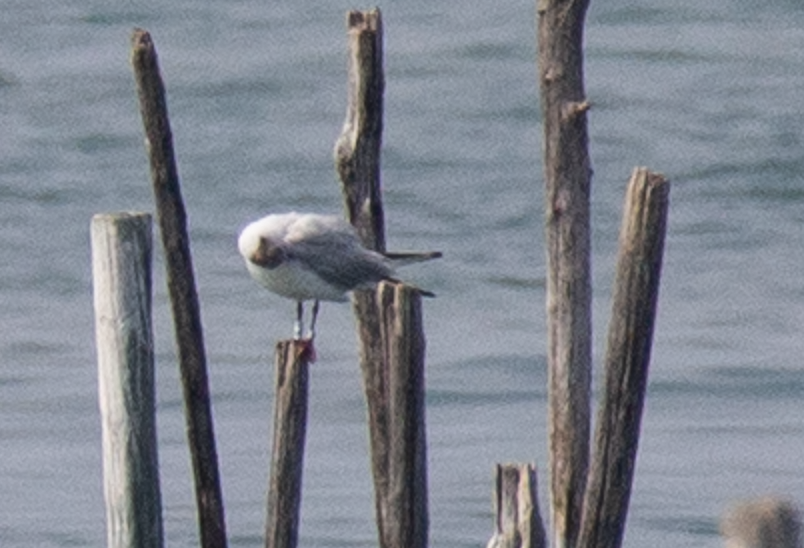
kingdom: Animalia
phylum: Chordata
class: Aves
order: Charadriiformes
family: Laridae
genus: Chroicocephalus
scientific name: Chroicocephalus ridibundus
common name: Black-headed gull
